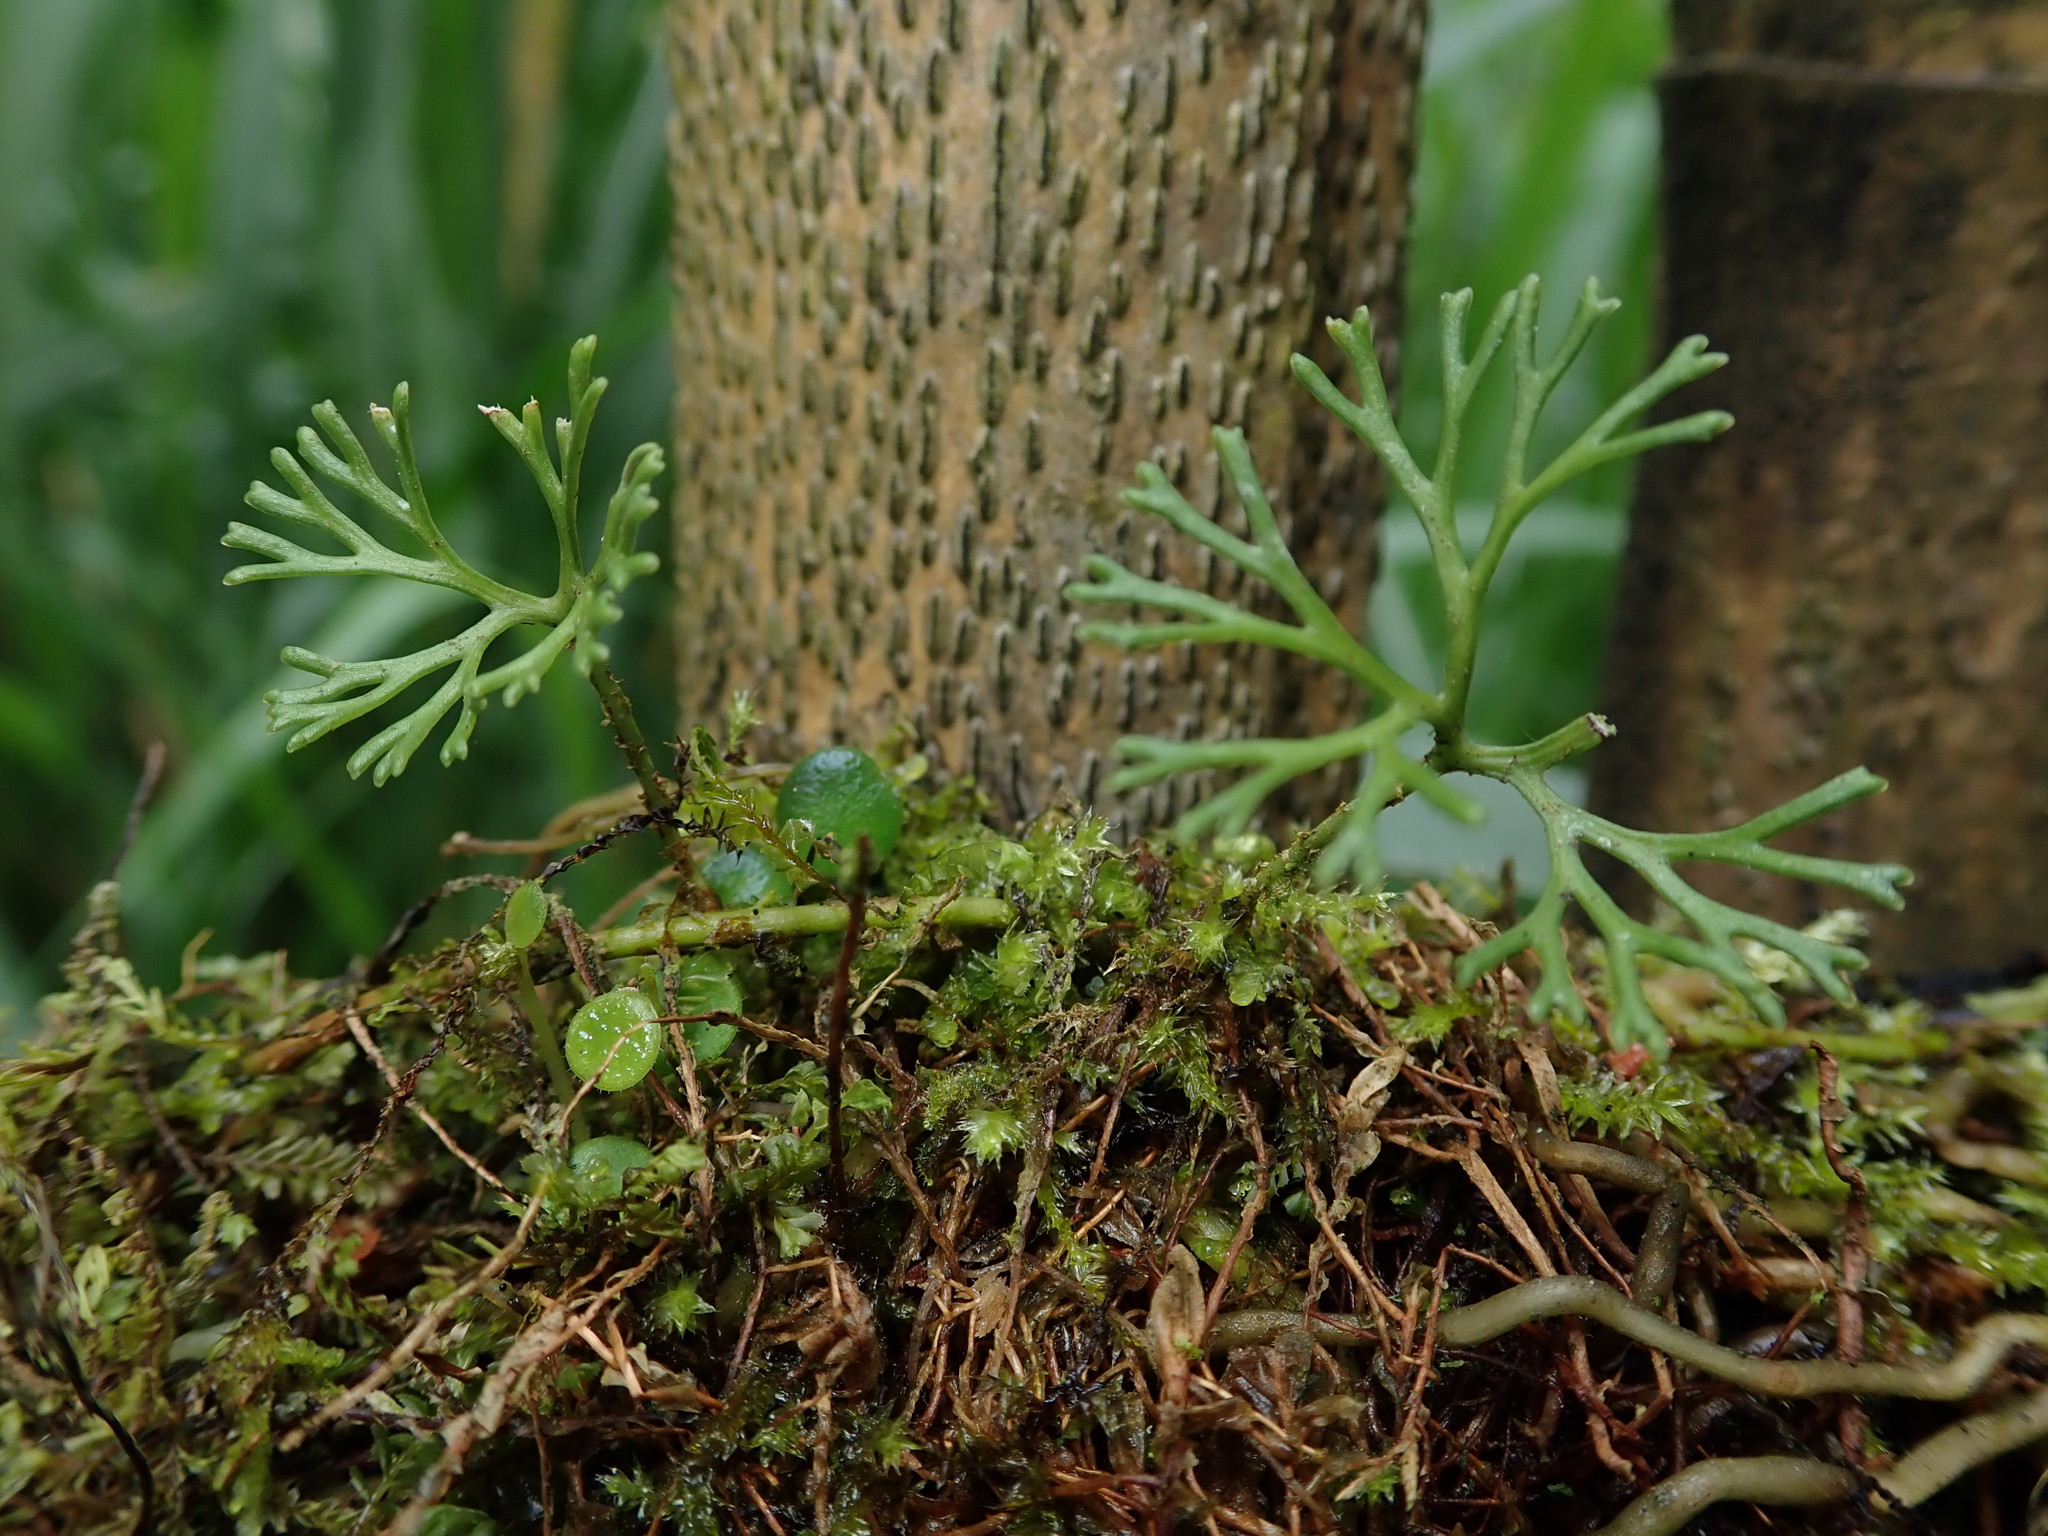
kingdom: Plantae
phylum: Tracheophyta
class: Polypodiopsida
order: Polypodiales
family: Dryopteridaceae
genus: Elaphoglossum
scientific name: Elaphoglossum peltatum
